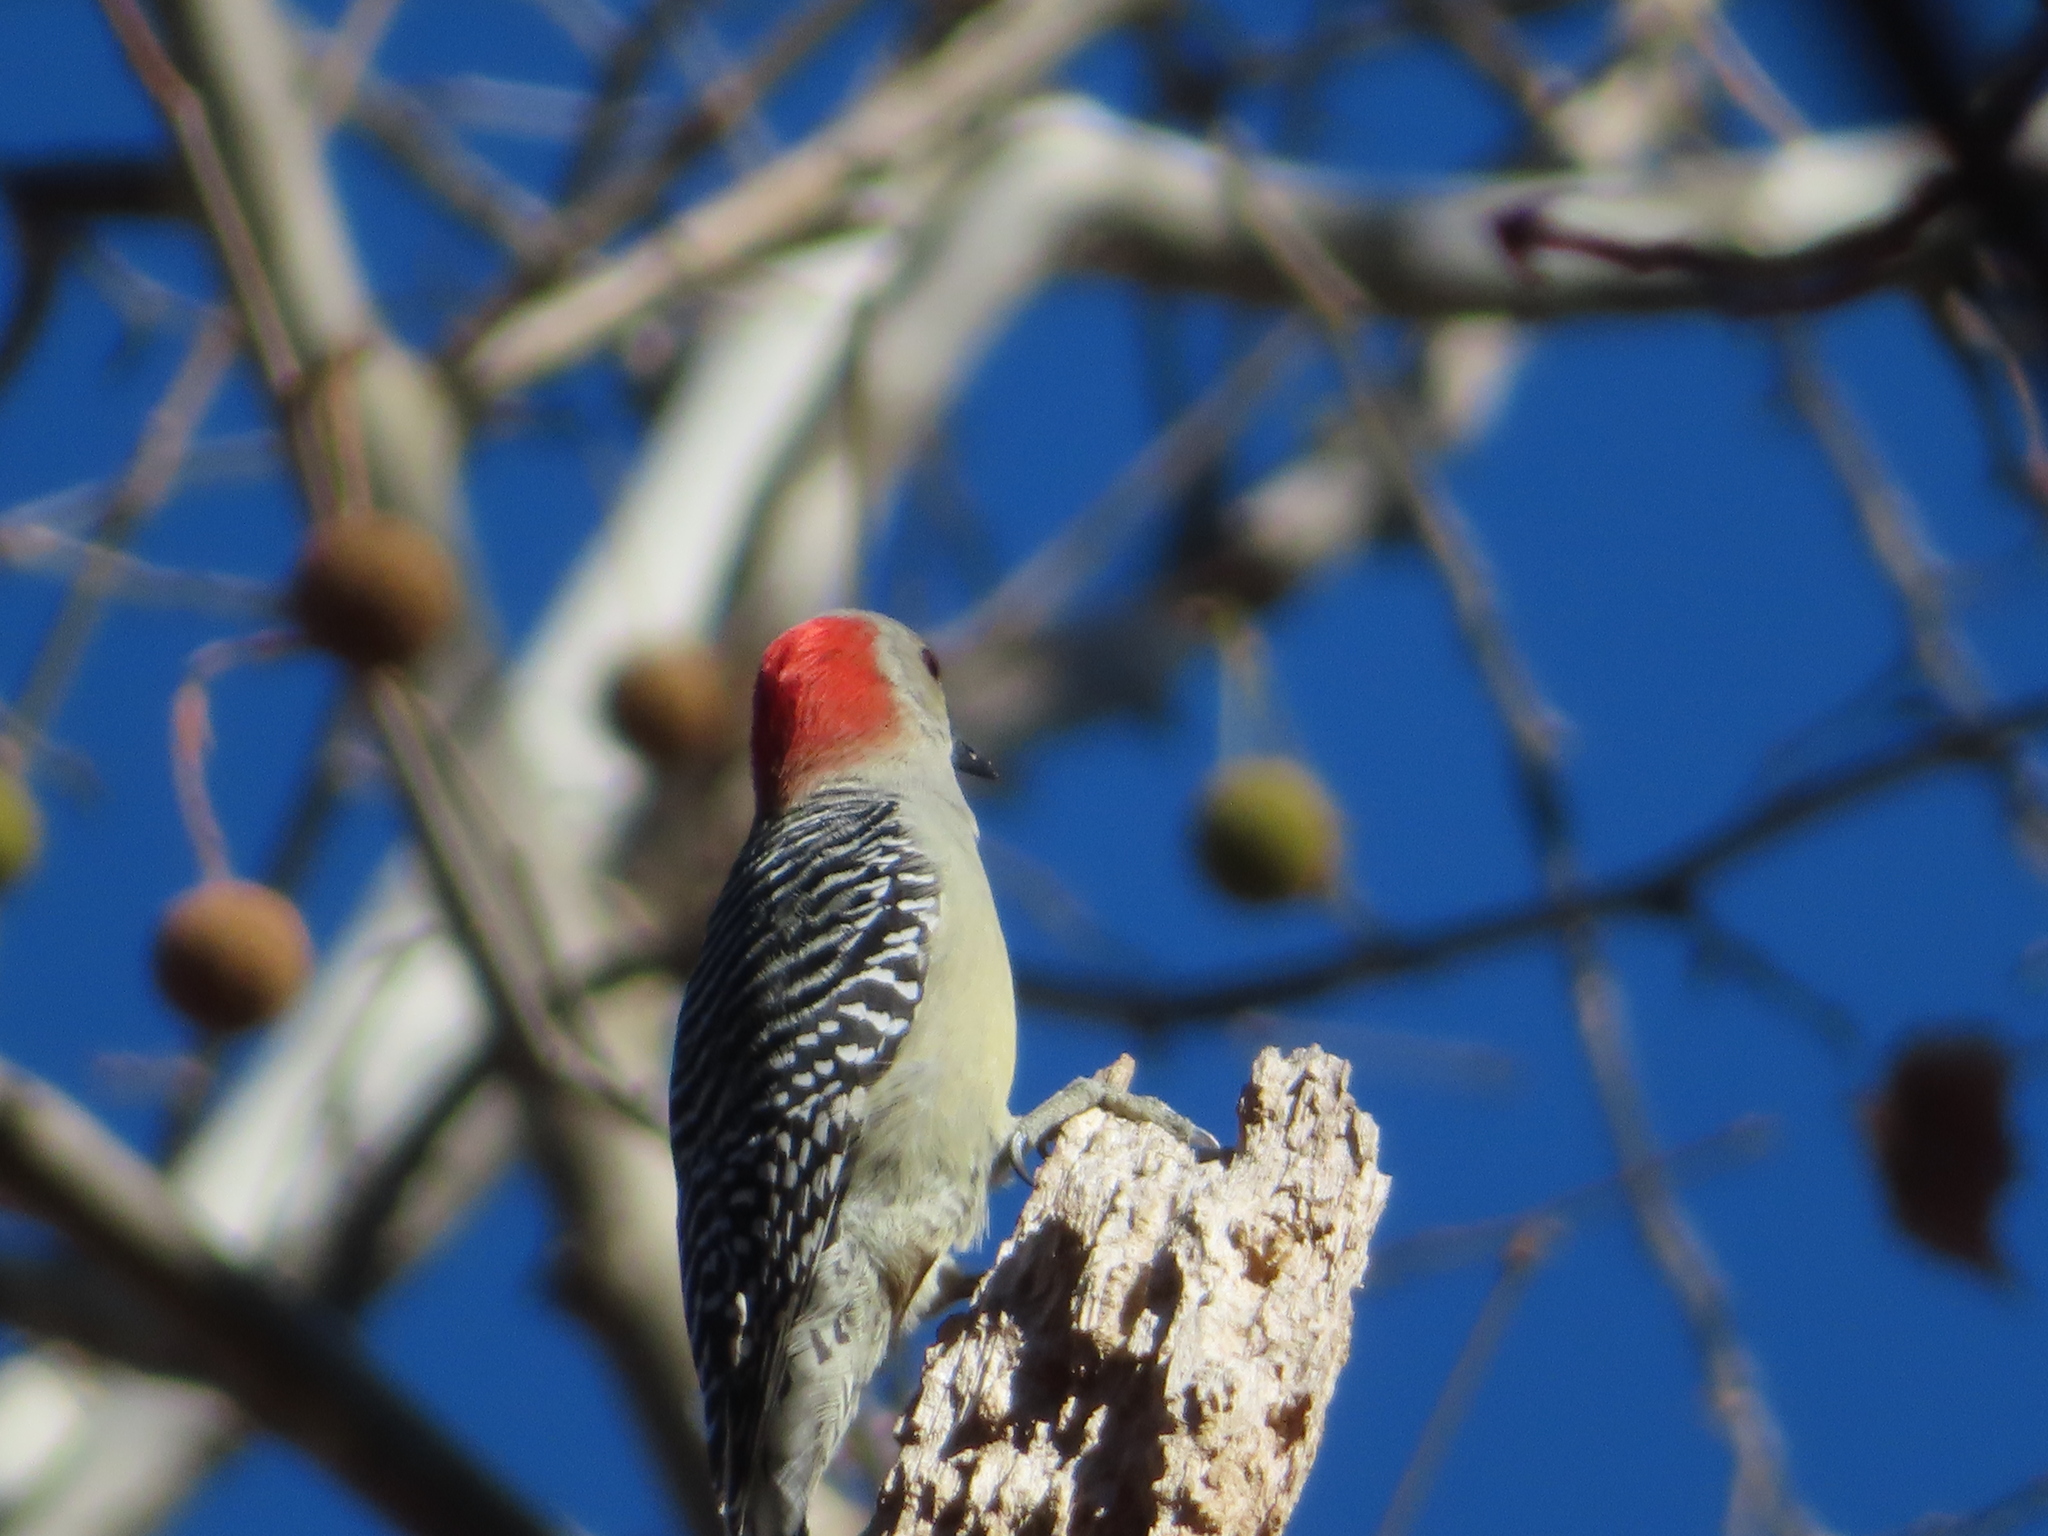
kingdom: Animalia
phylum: Chordata
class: Aves
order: Piciformes
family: Picidae
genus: Melanerpes
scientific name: Melanerpes carolinus
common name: Red-bellied woodpecker
